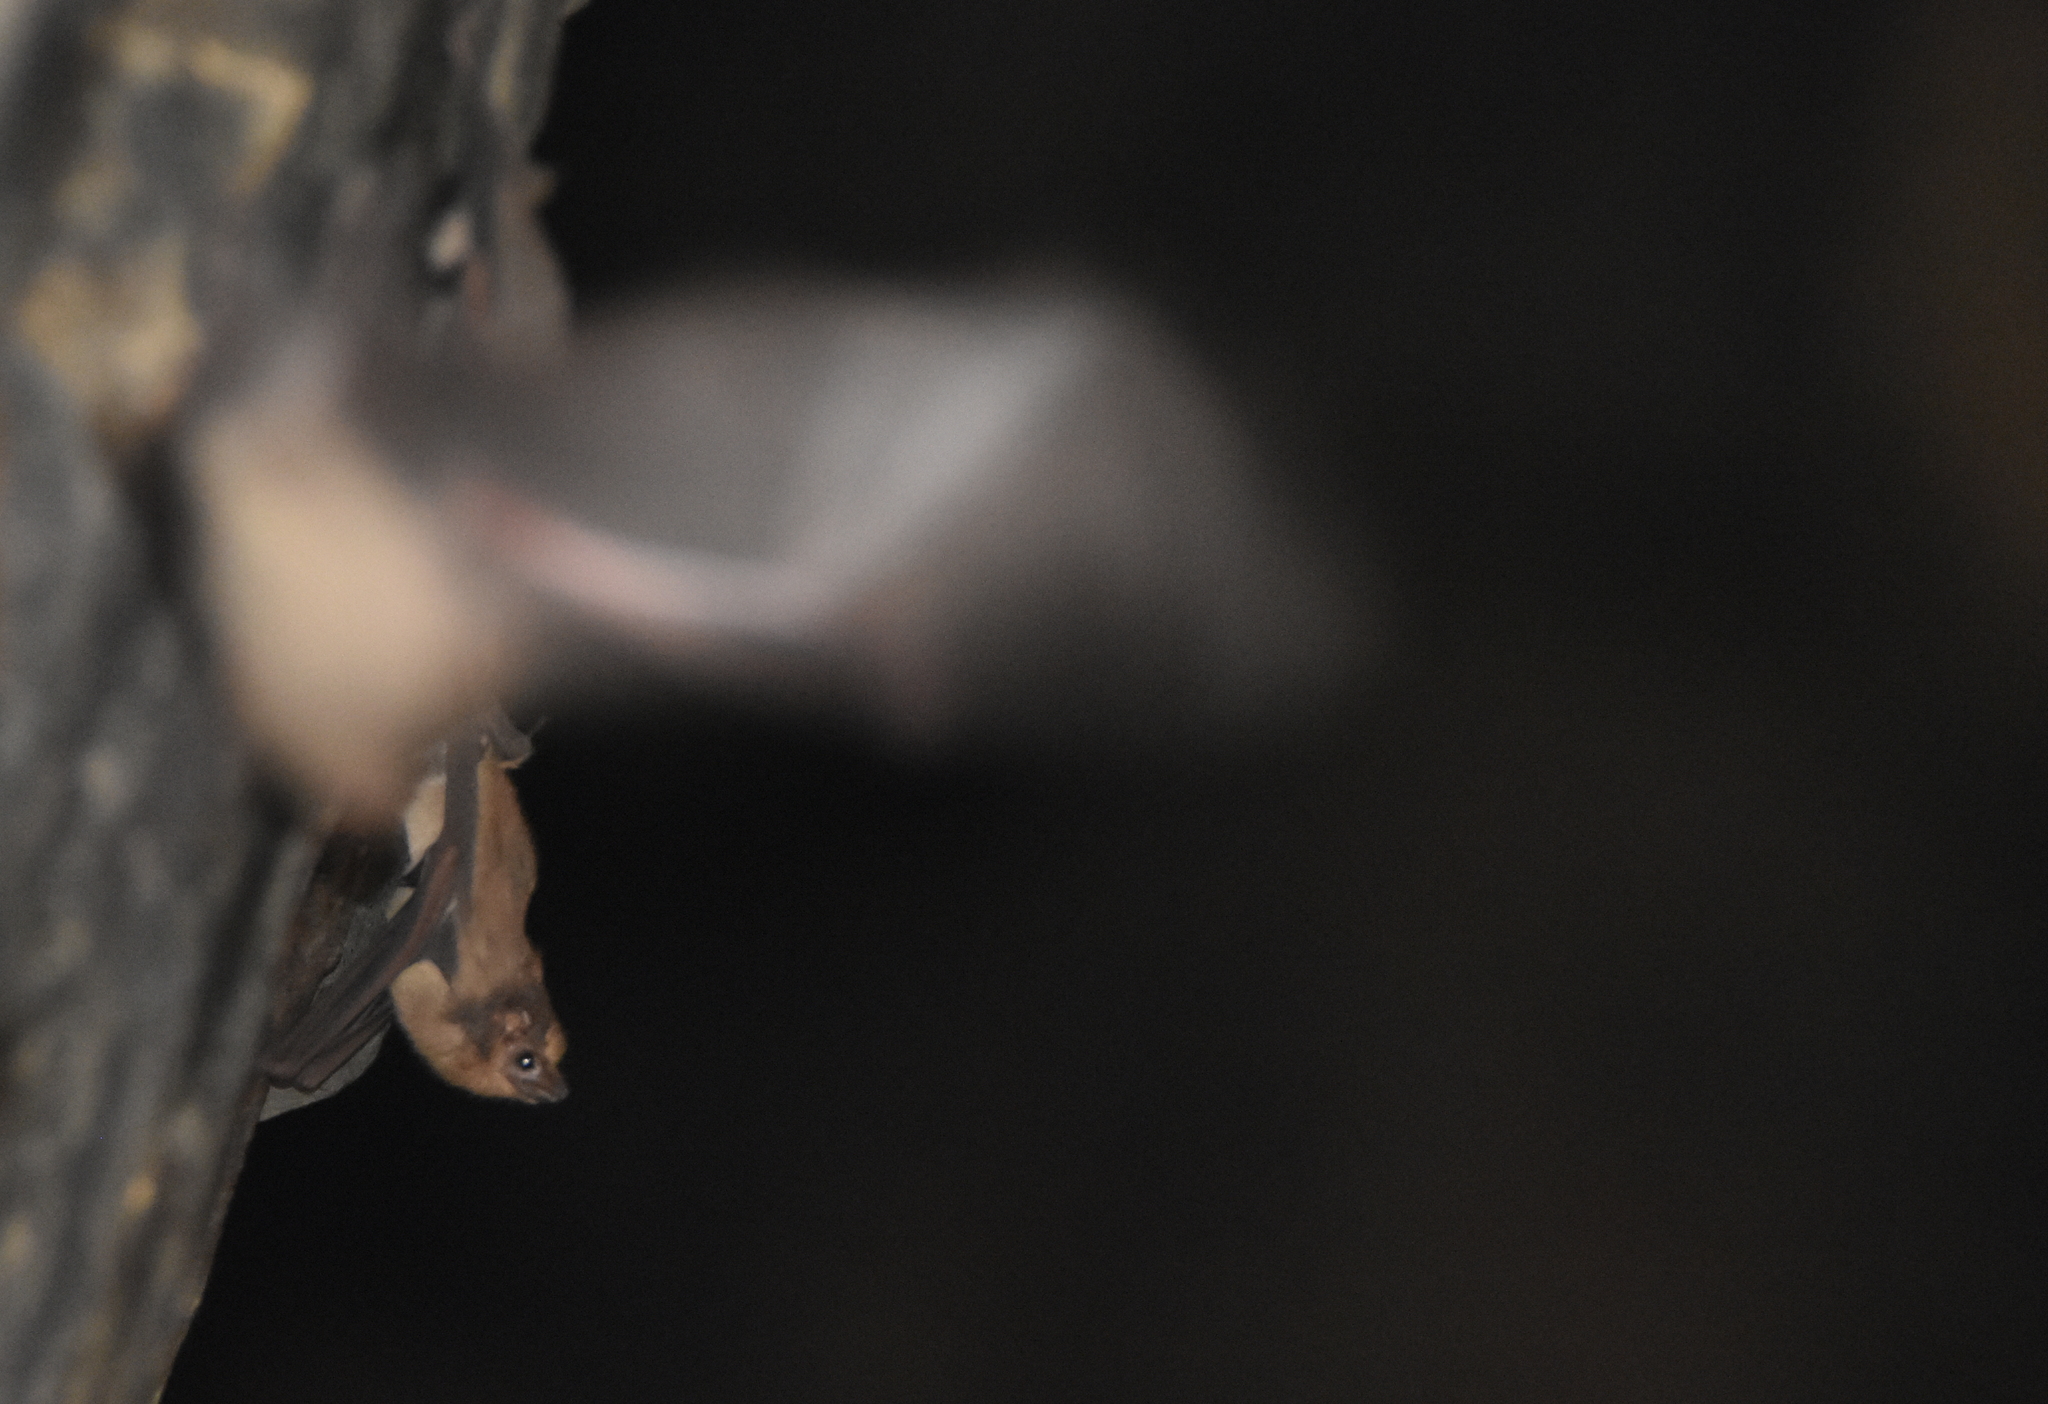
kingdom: Animalia
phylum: Chordata
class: Mammalia
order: Chiroptera
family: Emballonuridae
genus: Balantiopteryx
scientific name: Balantiopteryx plicata
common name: Gray sac-winged bat
